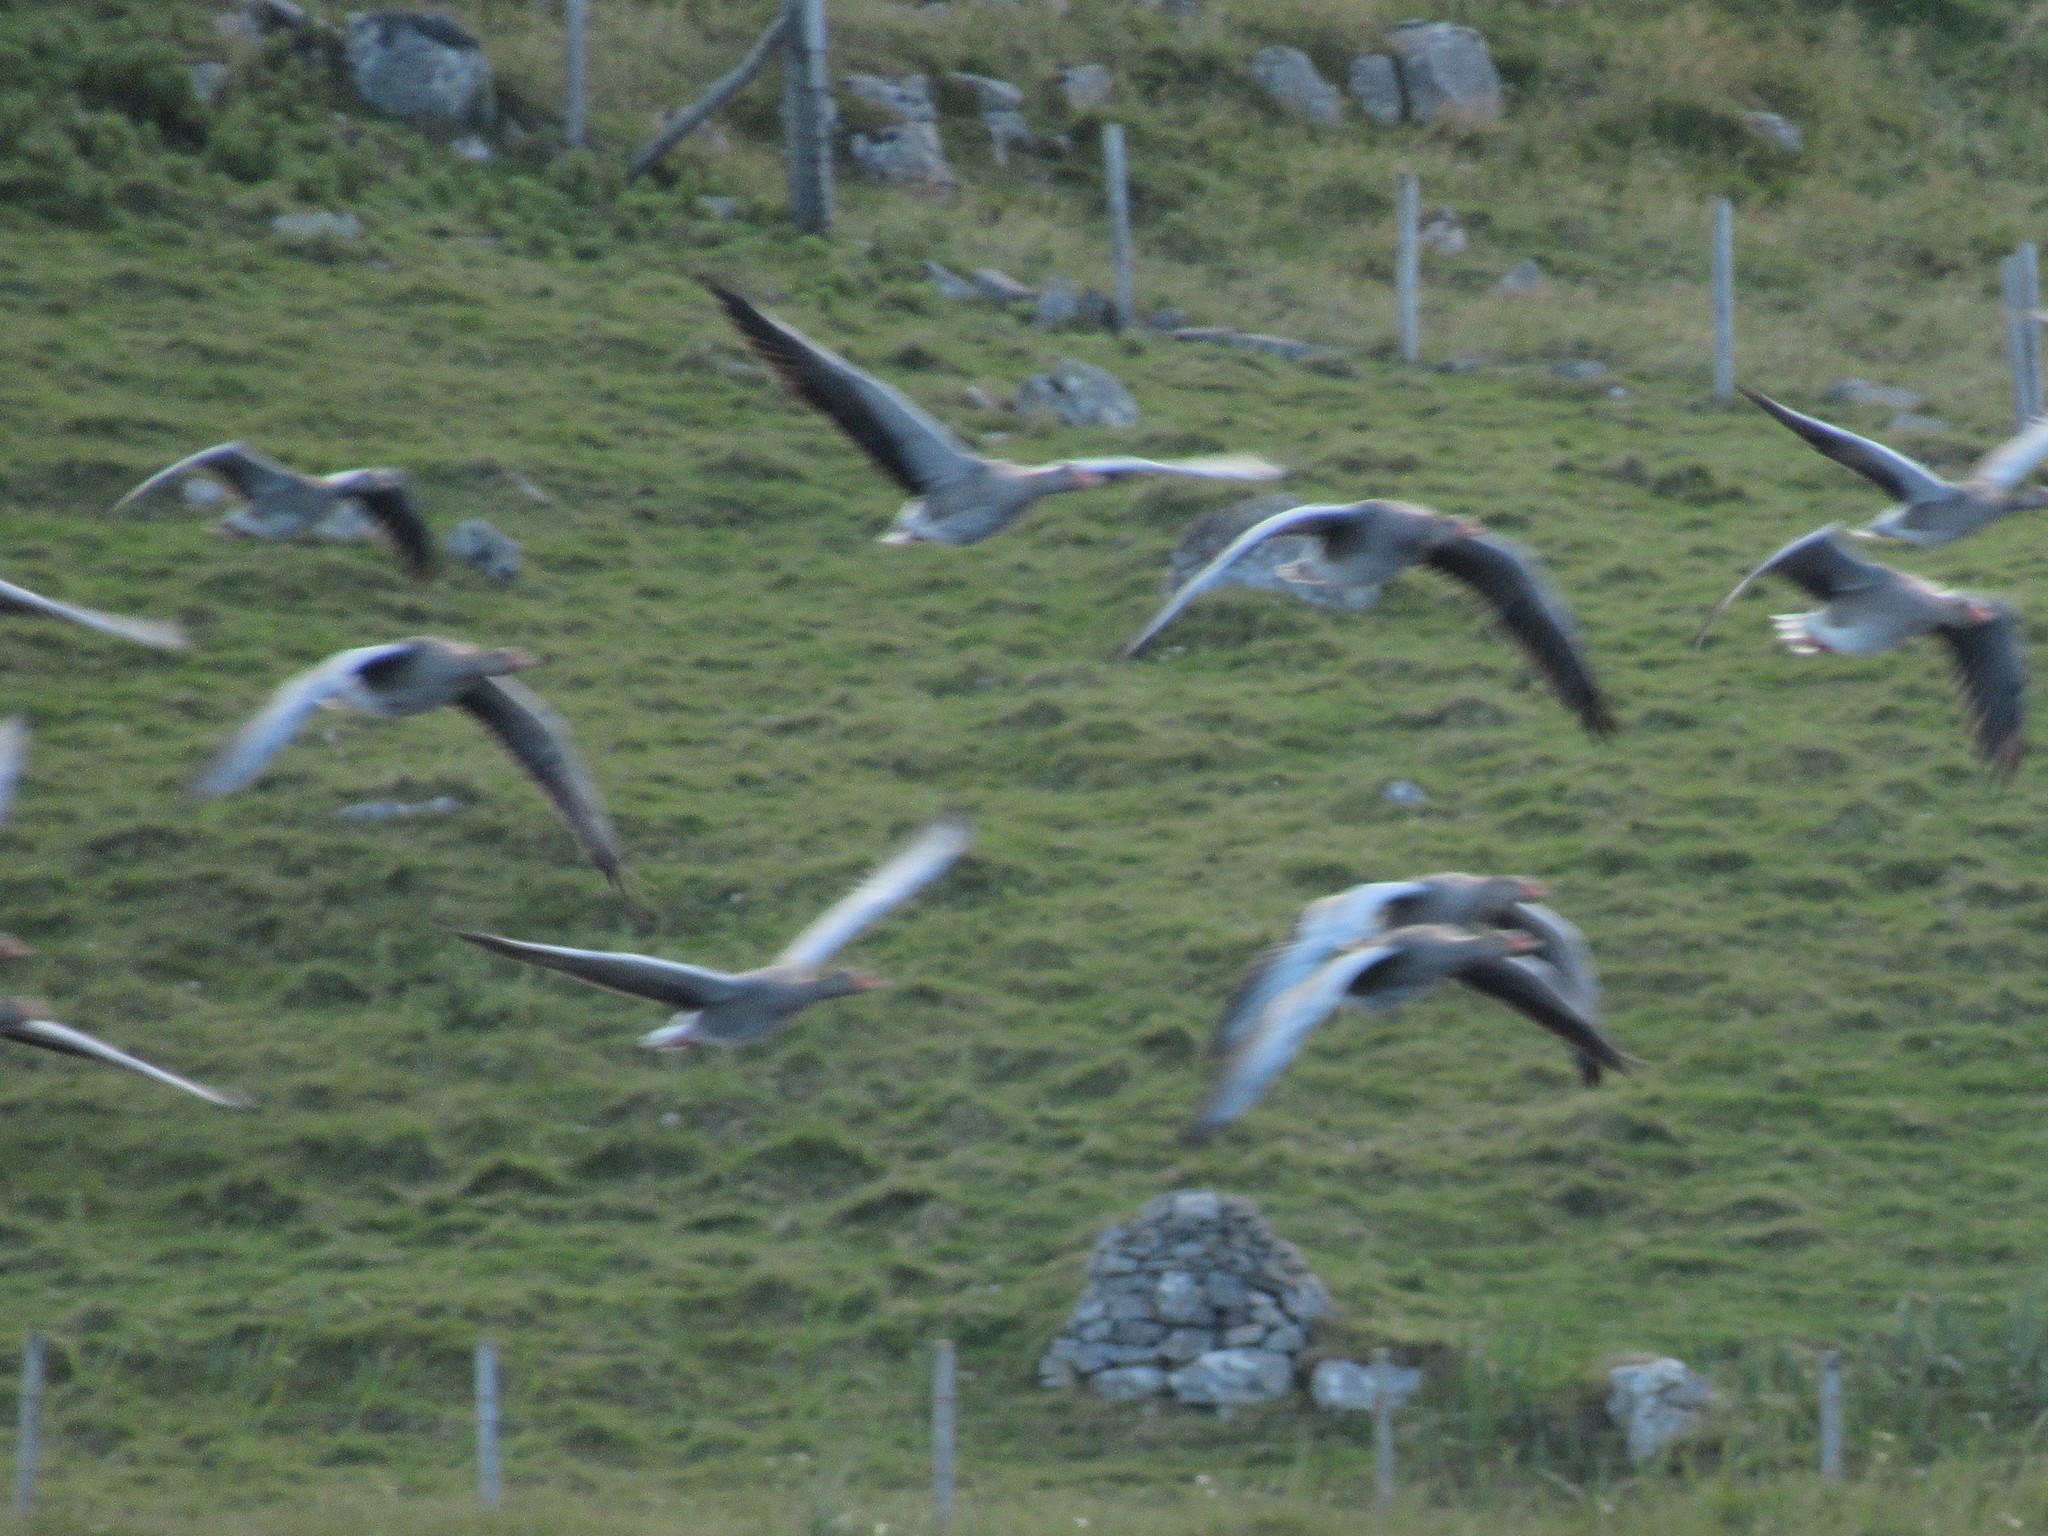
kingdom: Animalia
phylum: Chordata
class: Aves
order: Anseriformes
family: Anatidae
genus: Anser
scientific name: Anser anser
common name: Greylag goose
